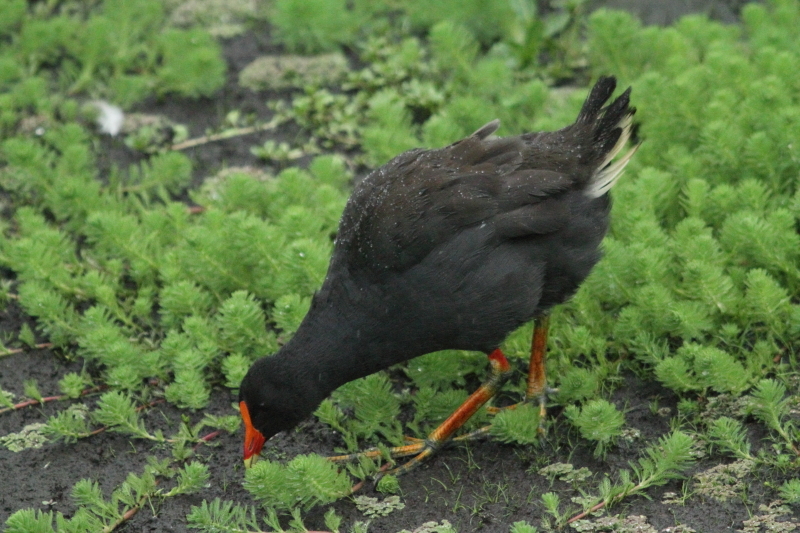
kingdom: Animalia
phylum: Chordata
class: Aves
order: Gruiformes
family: Rallidae
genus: Gallinula
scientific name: Gallinula tenebrosa
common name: Dusky moorhen
